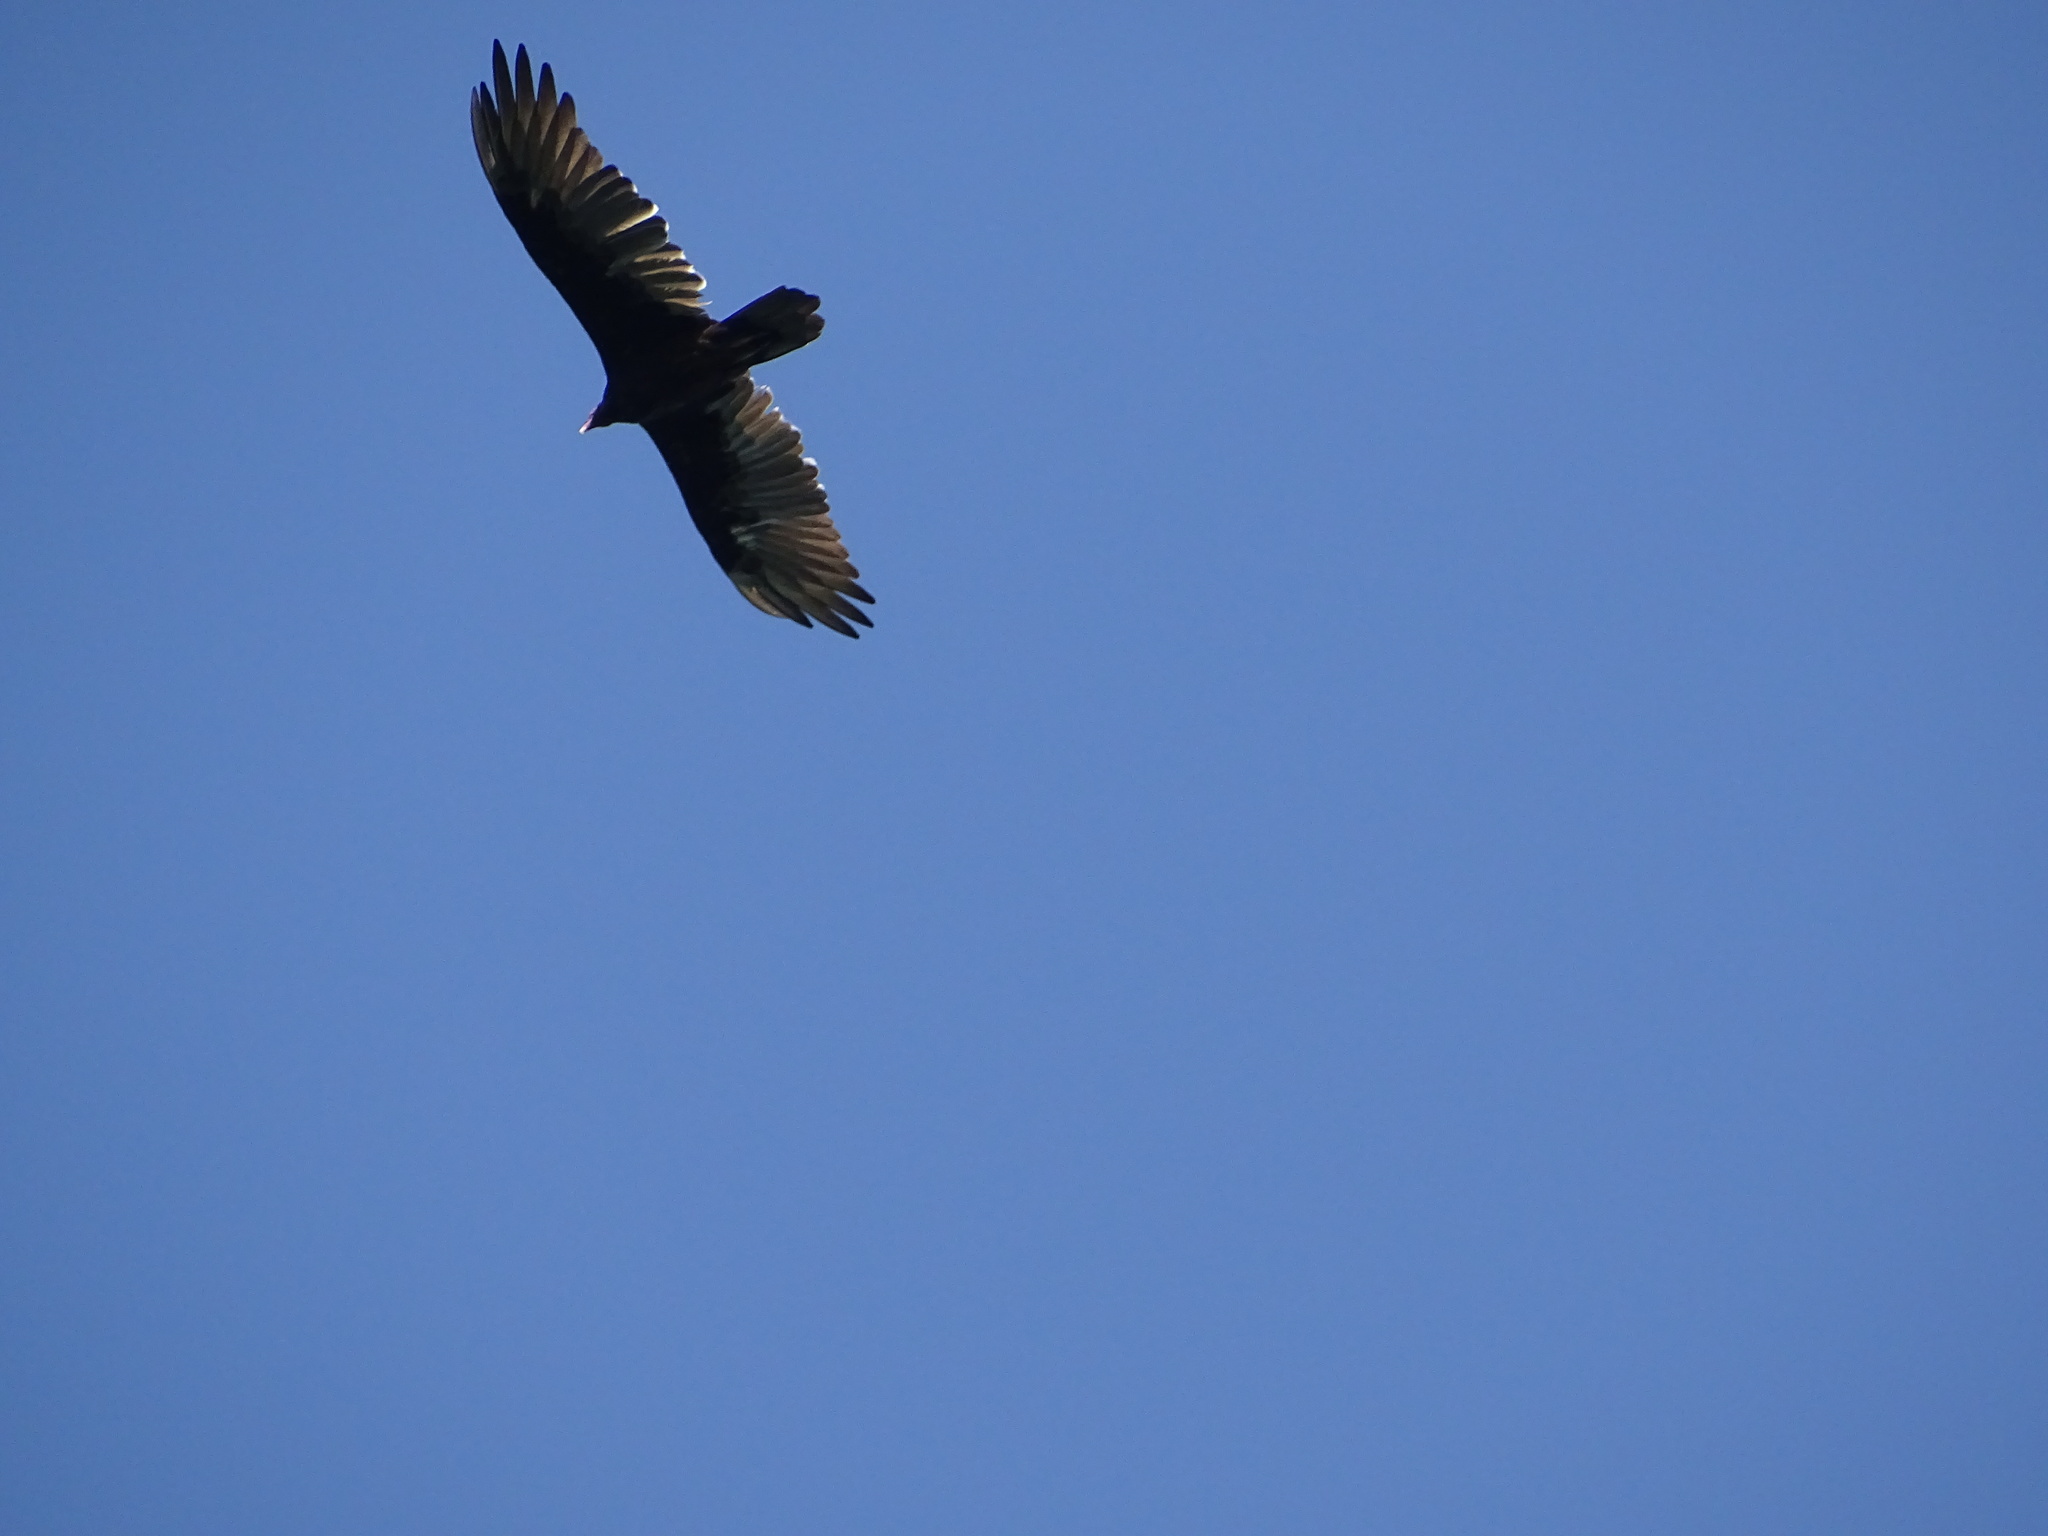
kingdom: Animalia
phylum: Chordata
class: Aves
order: Accipitriformes
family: Cathartidae
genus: Cathartes
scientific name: Cathartes aura
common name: Turkey vulture
